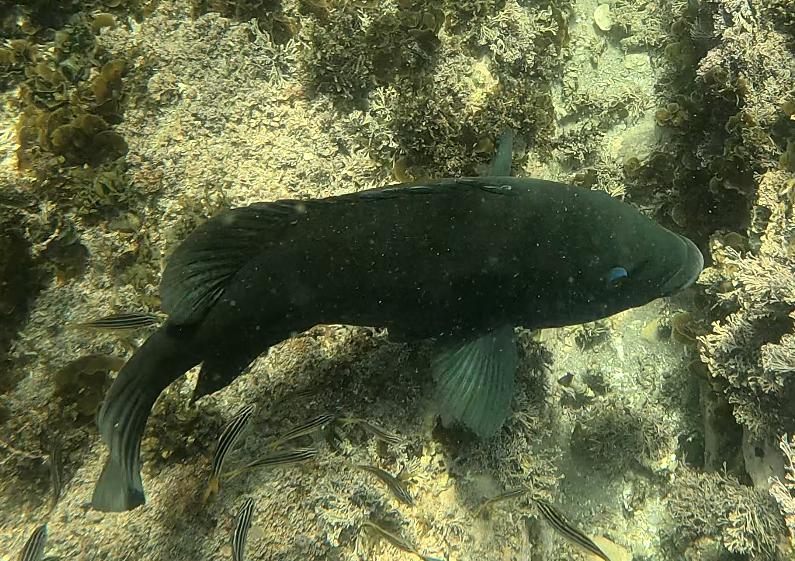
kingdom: Animalia
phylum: Chordata
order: Perciformes
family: Labridae
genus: Achoerodus
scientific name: Achoerodus viridis
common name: Brown groper
